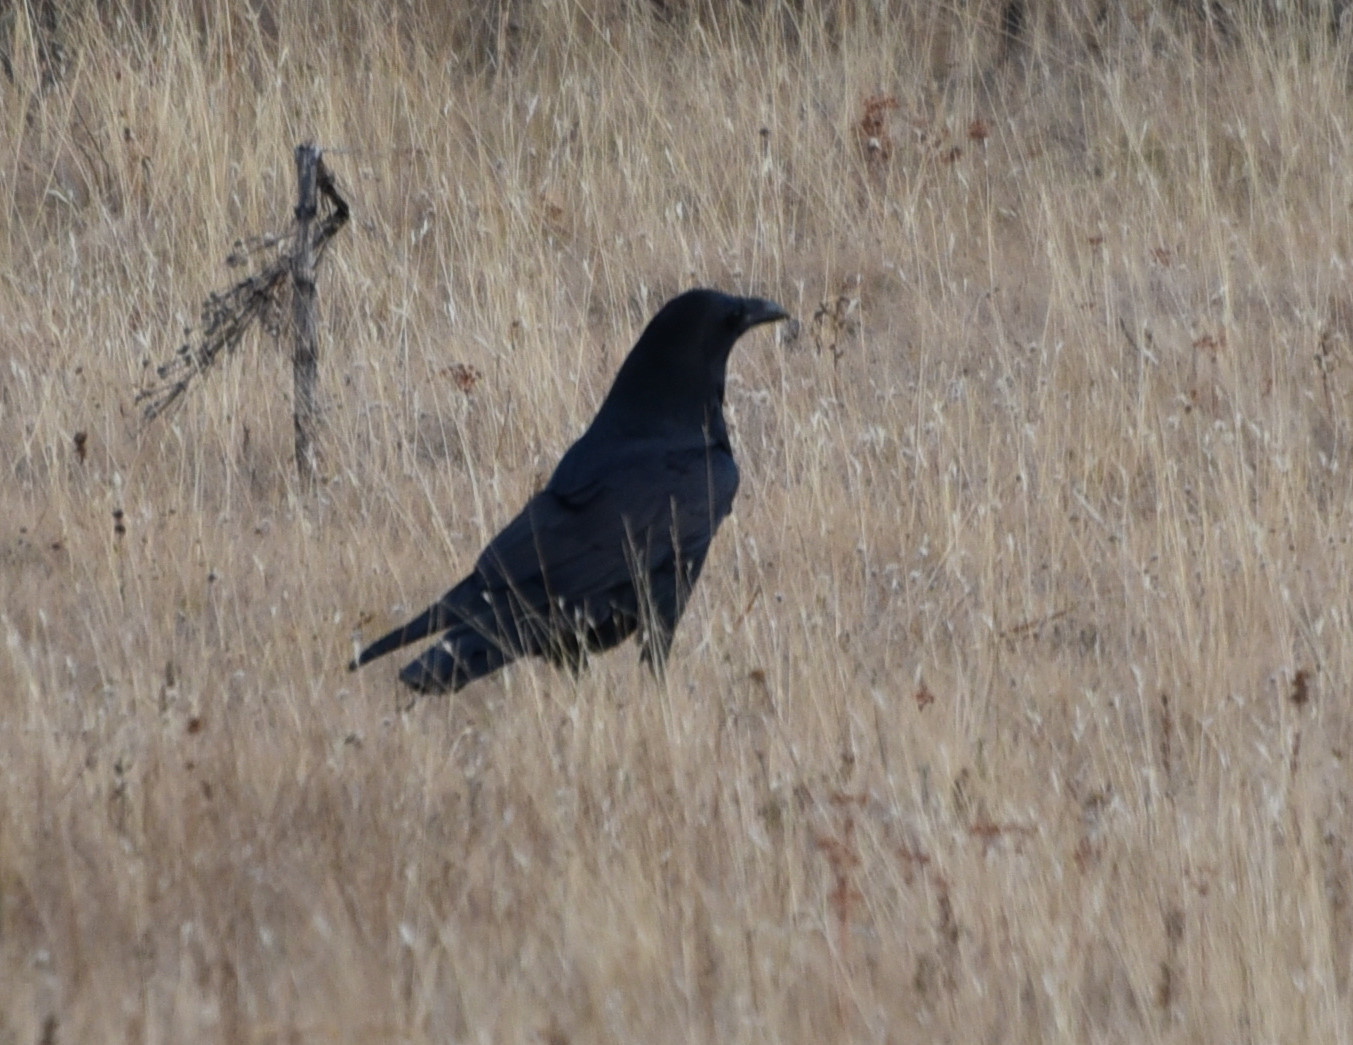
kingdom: Animalia
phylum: Chordata
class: Aves
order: Passeriformes
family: Corvidae
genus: Corvus
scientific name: Corvus corax
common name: Common raven
